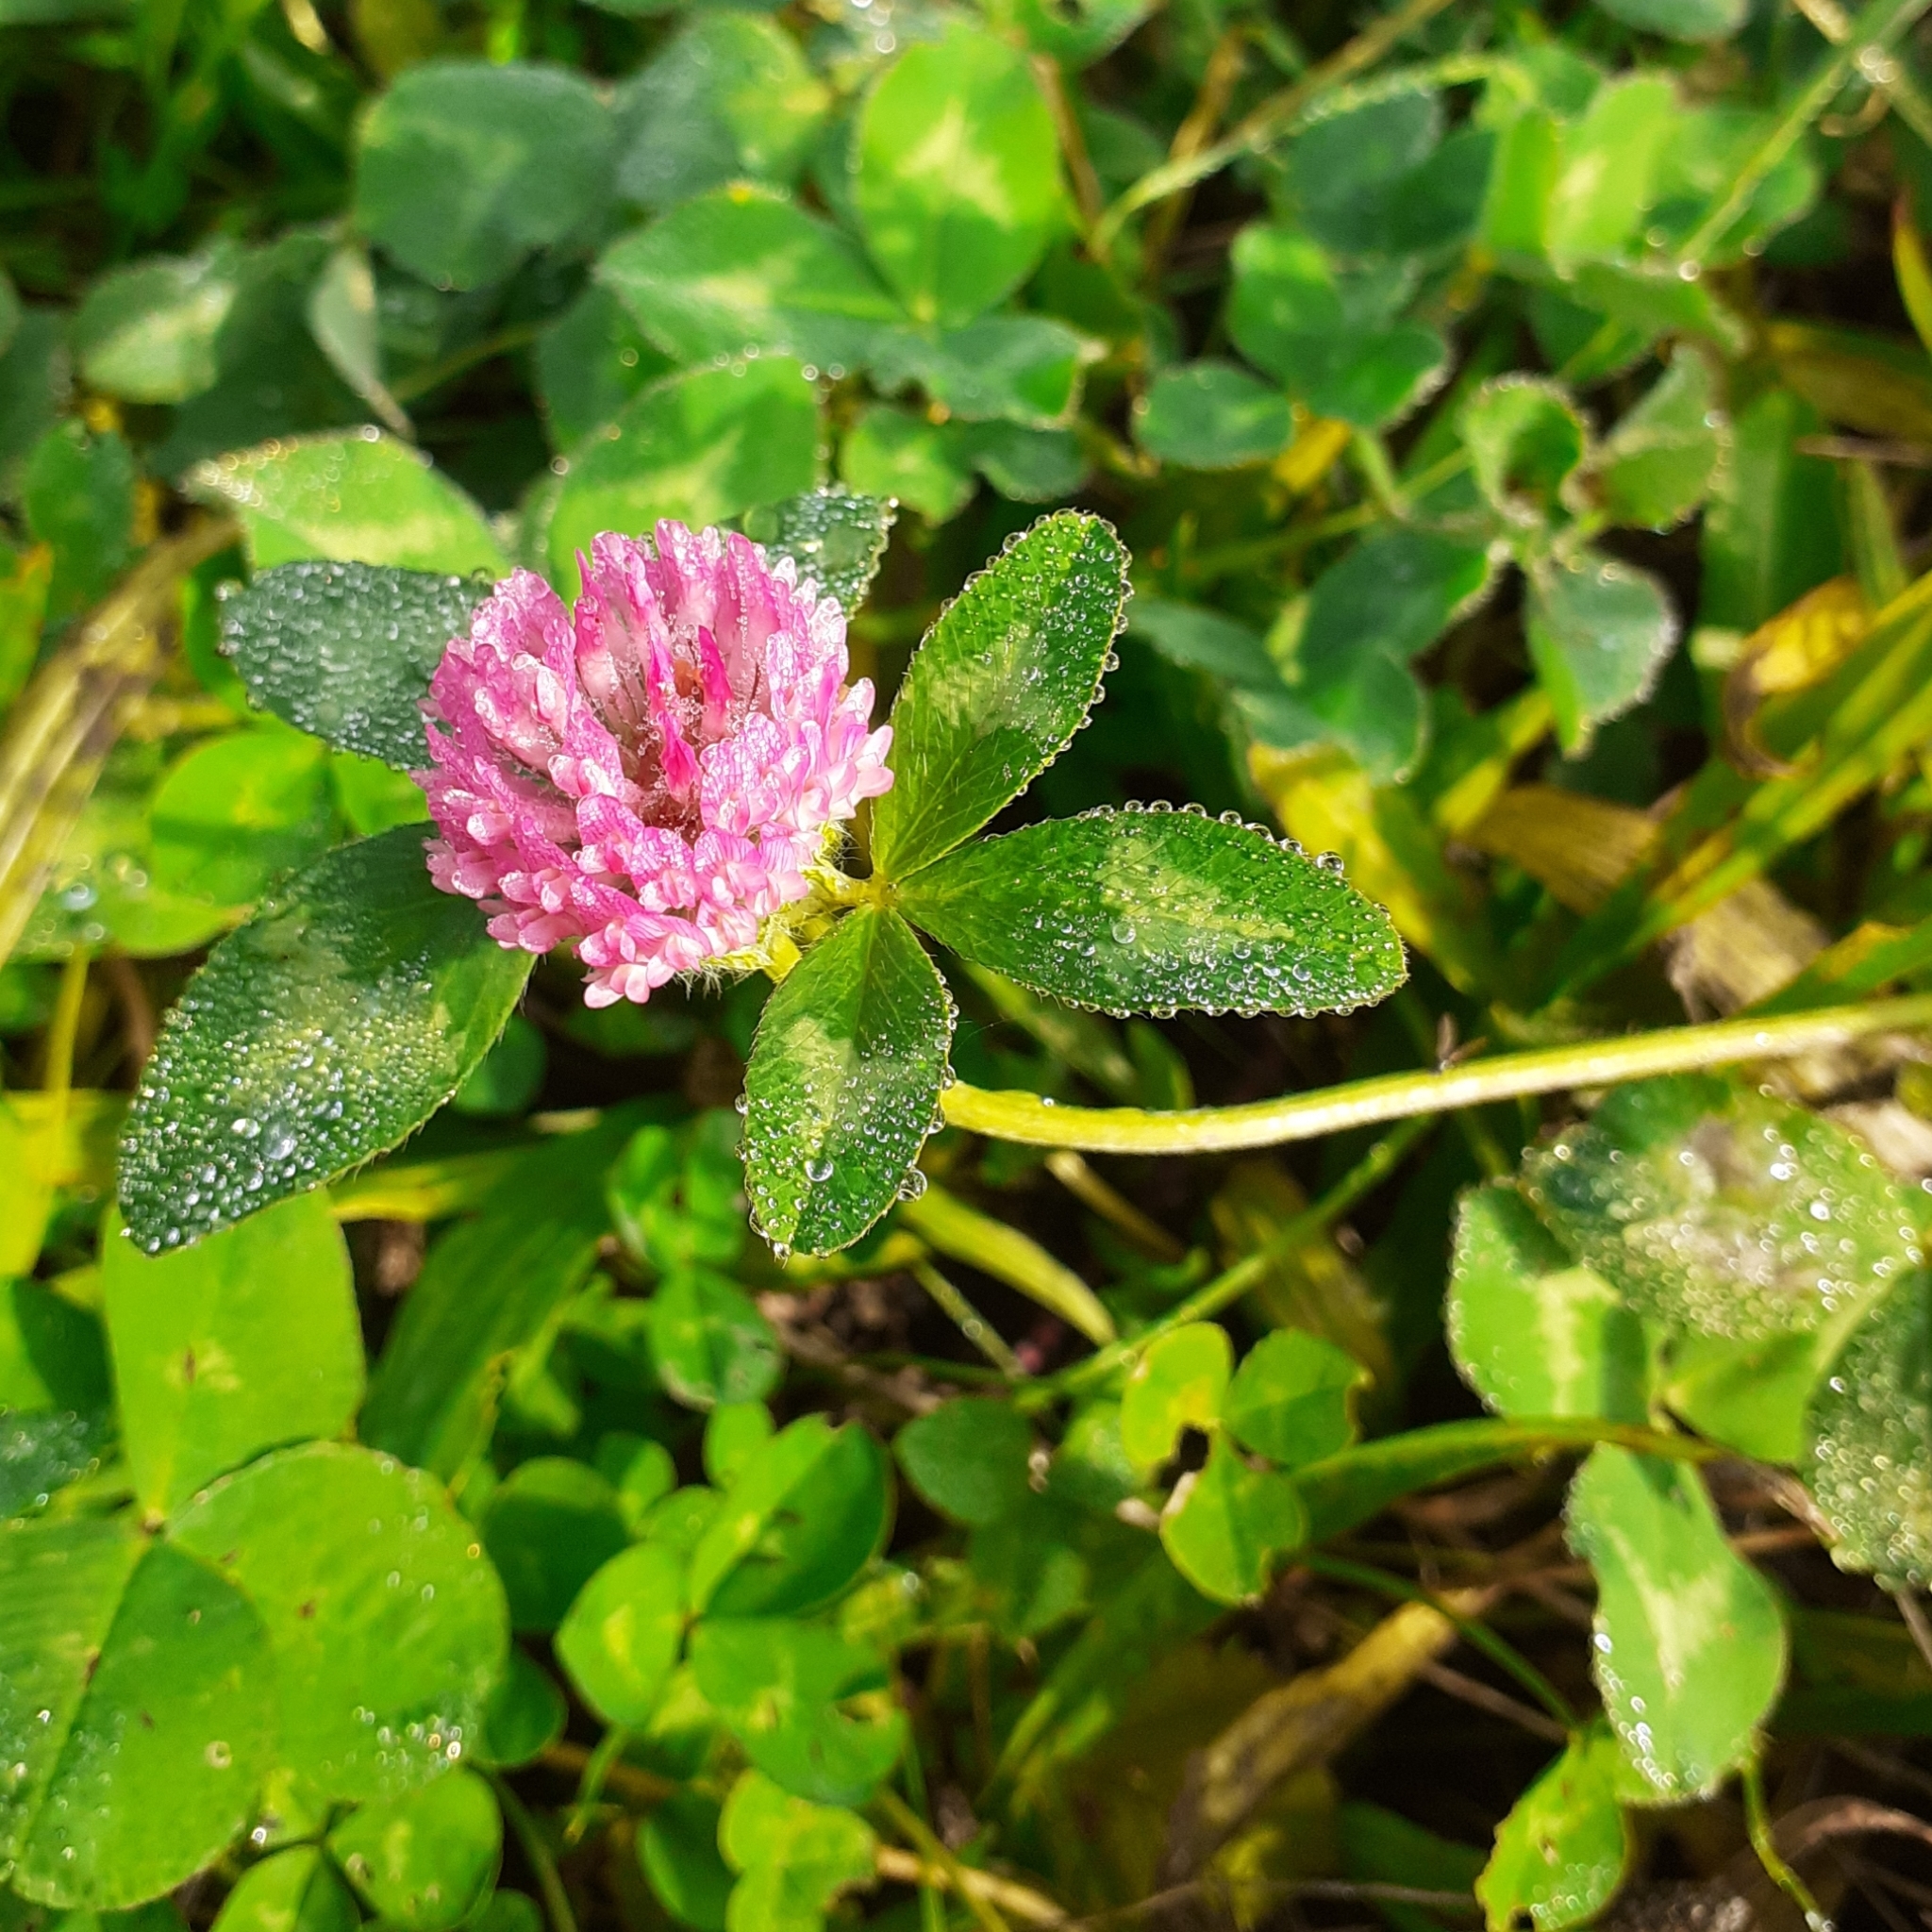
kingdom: Plantae
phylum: Tracheophyta
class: Magnoliopsida
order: Fabales
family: Fabaceae
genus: Trifolium
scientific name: Trifolium pratense
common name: Red clover
